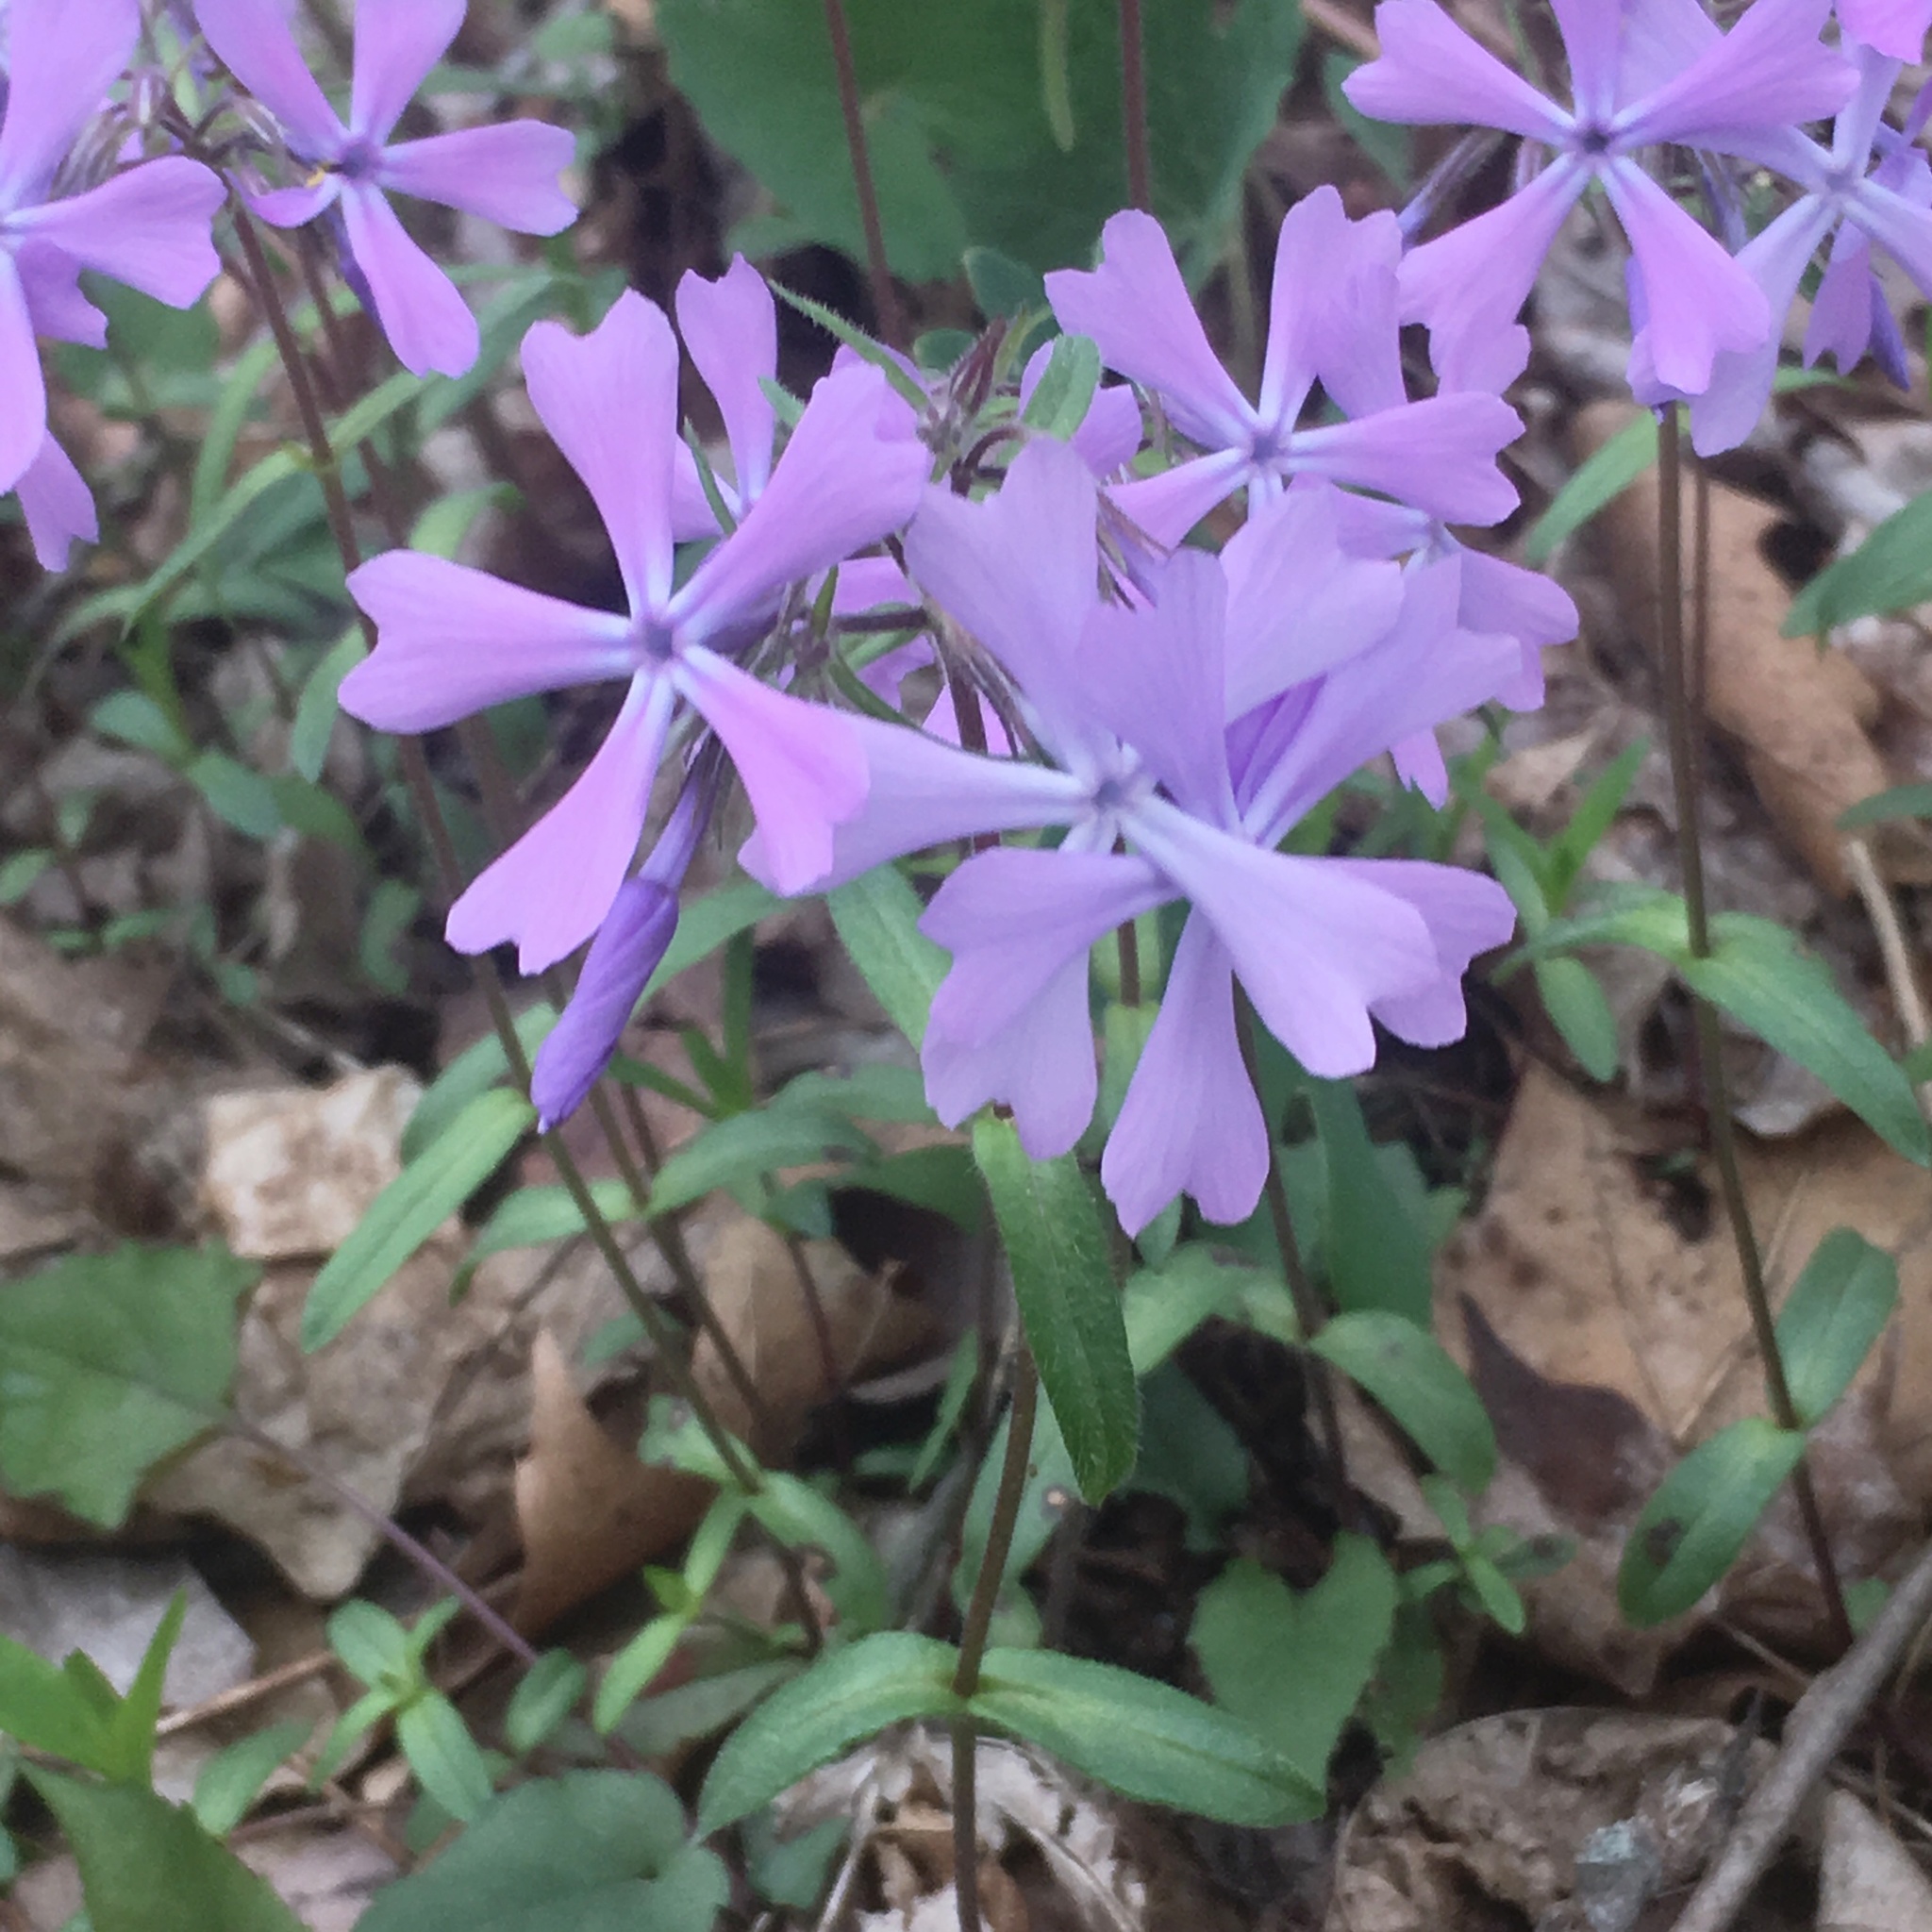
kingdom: Plantae
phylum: Tracheophyta
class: Magnoliopsida
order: Ericales
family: Polemoniaceae
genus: Phlox
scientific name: Phlox divaricata
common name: Blue phlox
